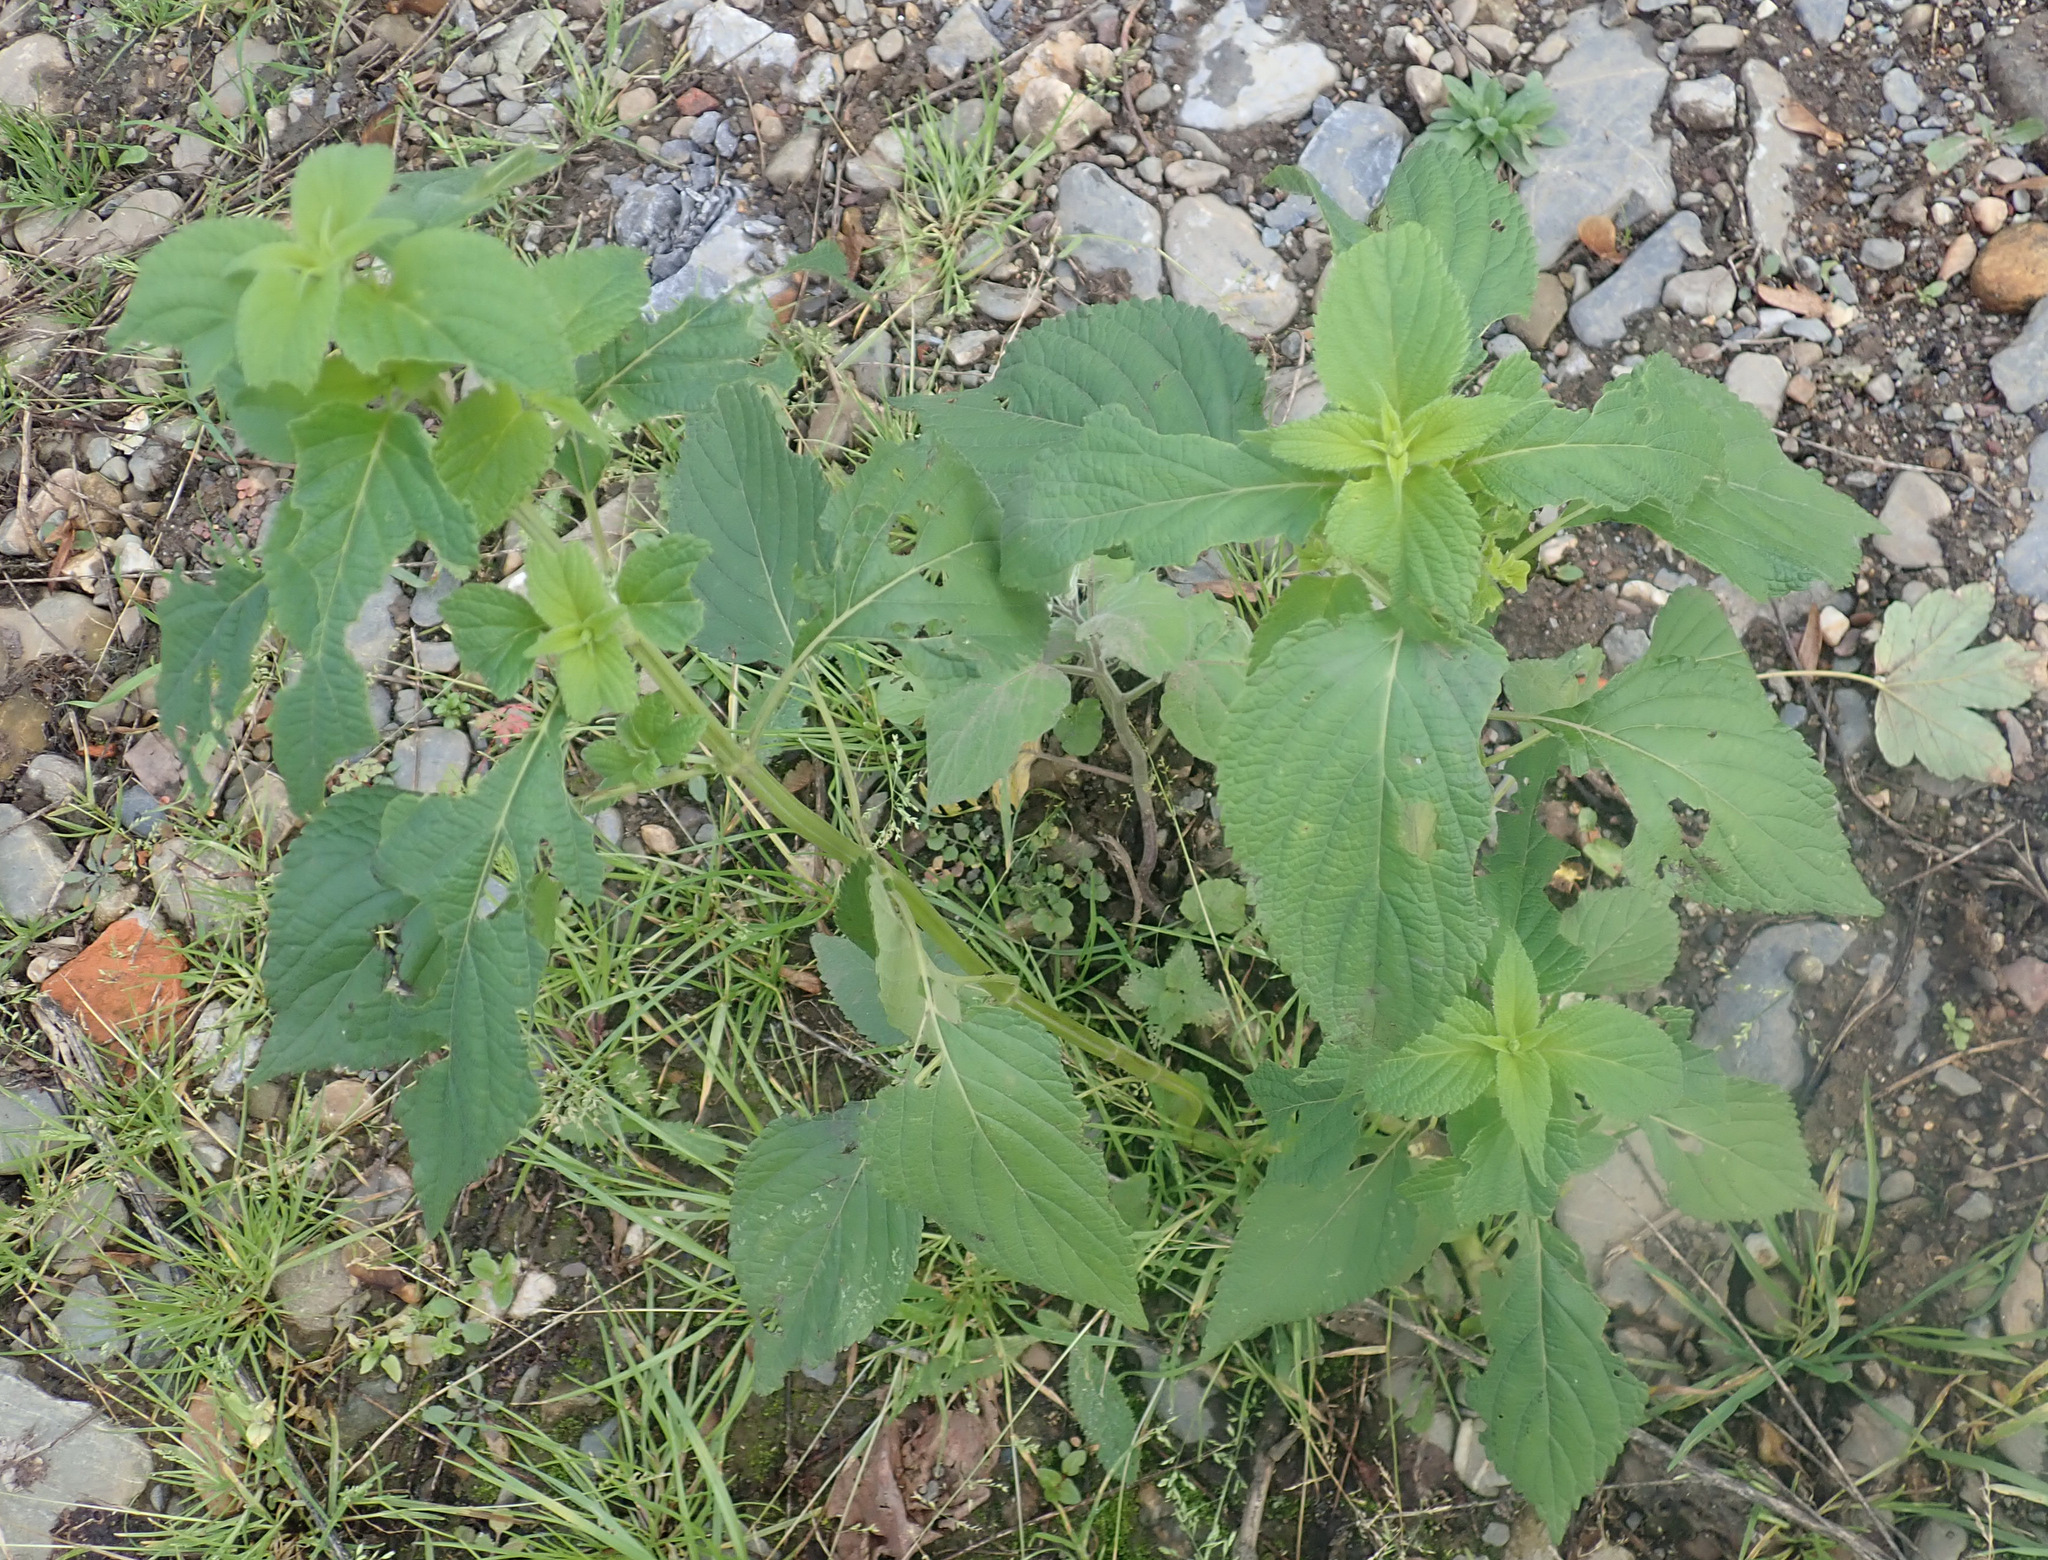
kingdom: Plantae
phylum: Tracheophyta
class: Magnoliopsida
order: Lamiales
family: Lamiaceae
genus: Salvia
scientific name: Salvia hispanica
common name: Chia
